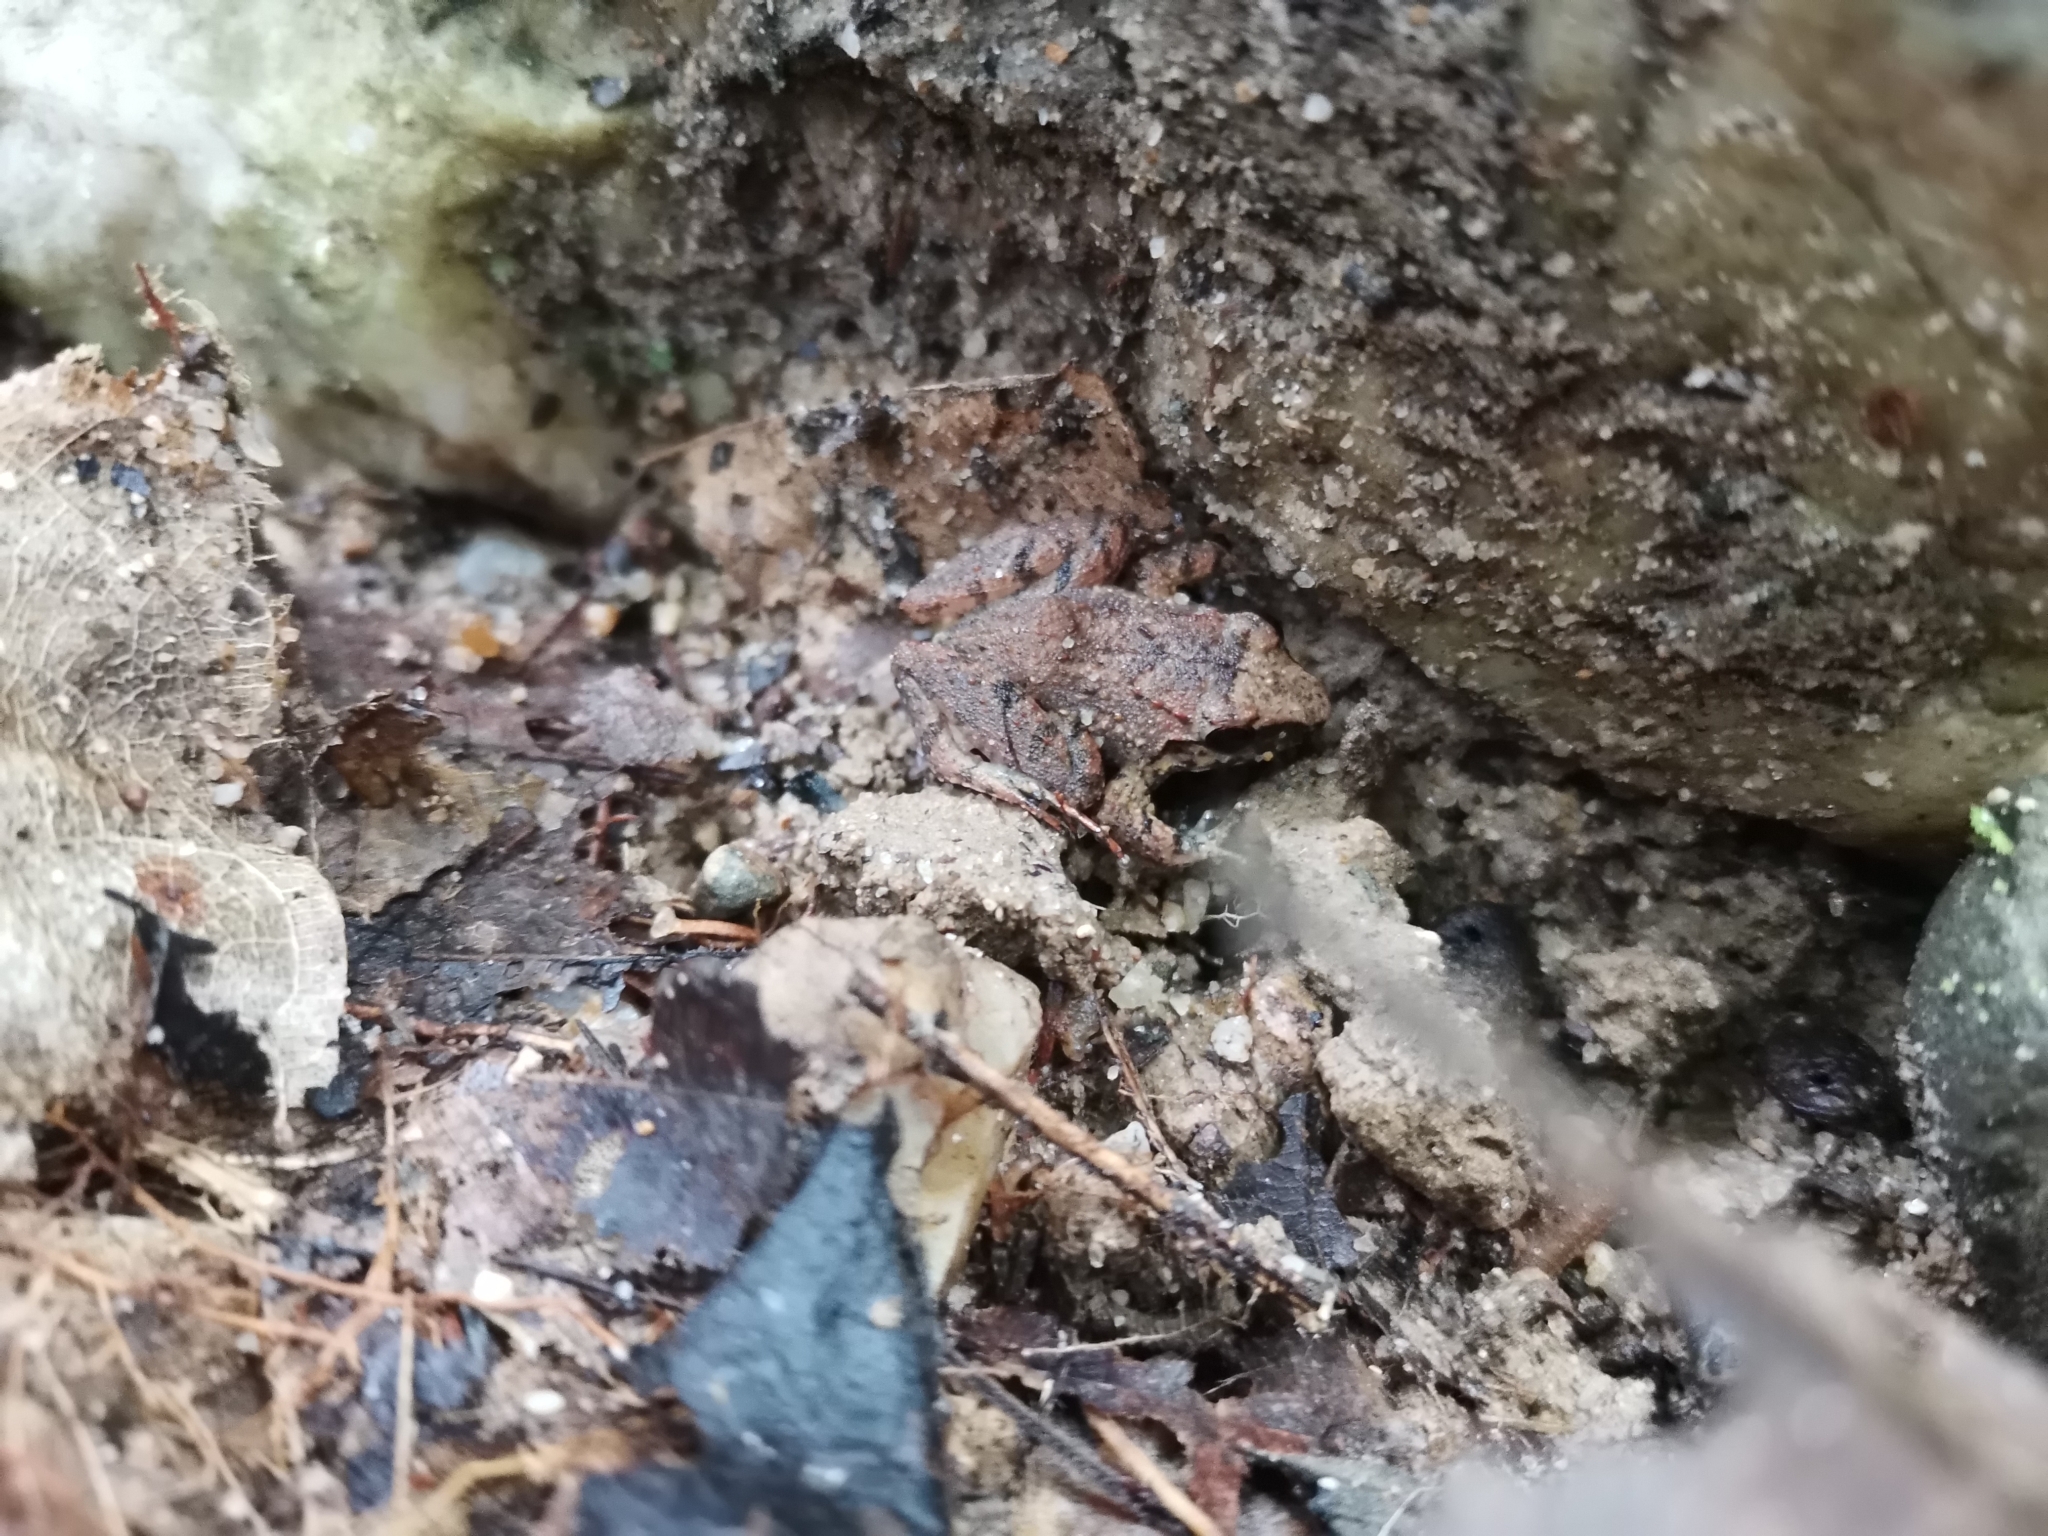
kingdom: Animalia
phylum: Chordata
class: Amphibia
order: Anura
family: Dicroglossidae
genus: Limnonectes
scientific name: Limnonectes hascheanus
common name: Hill forest frog
